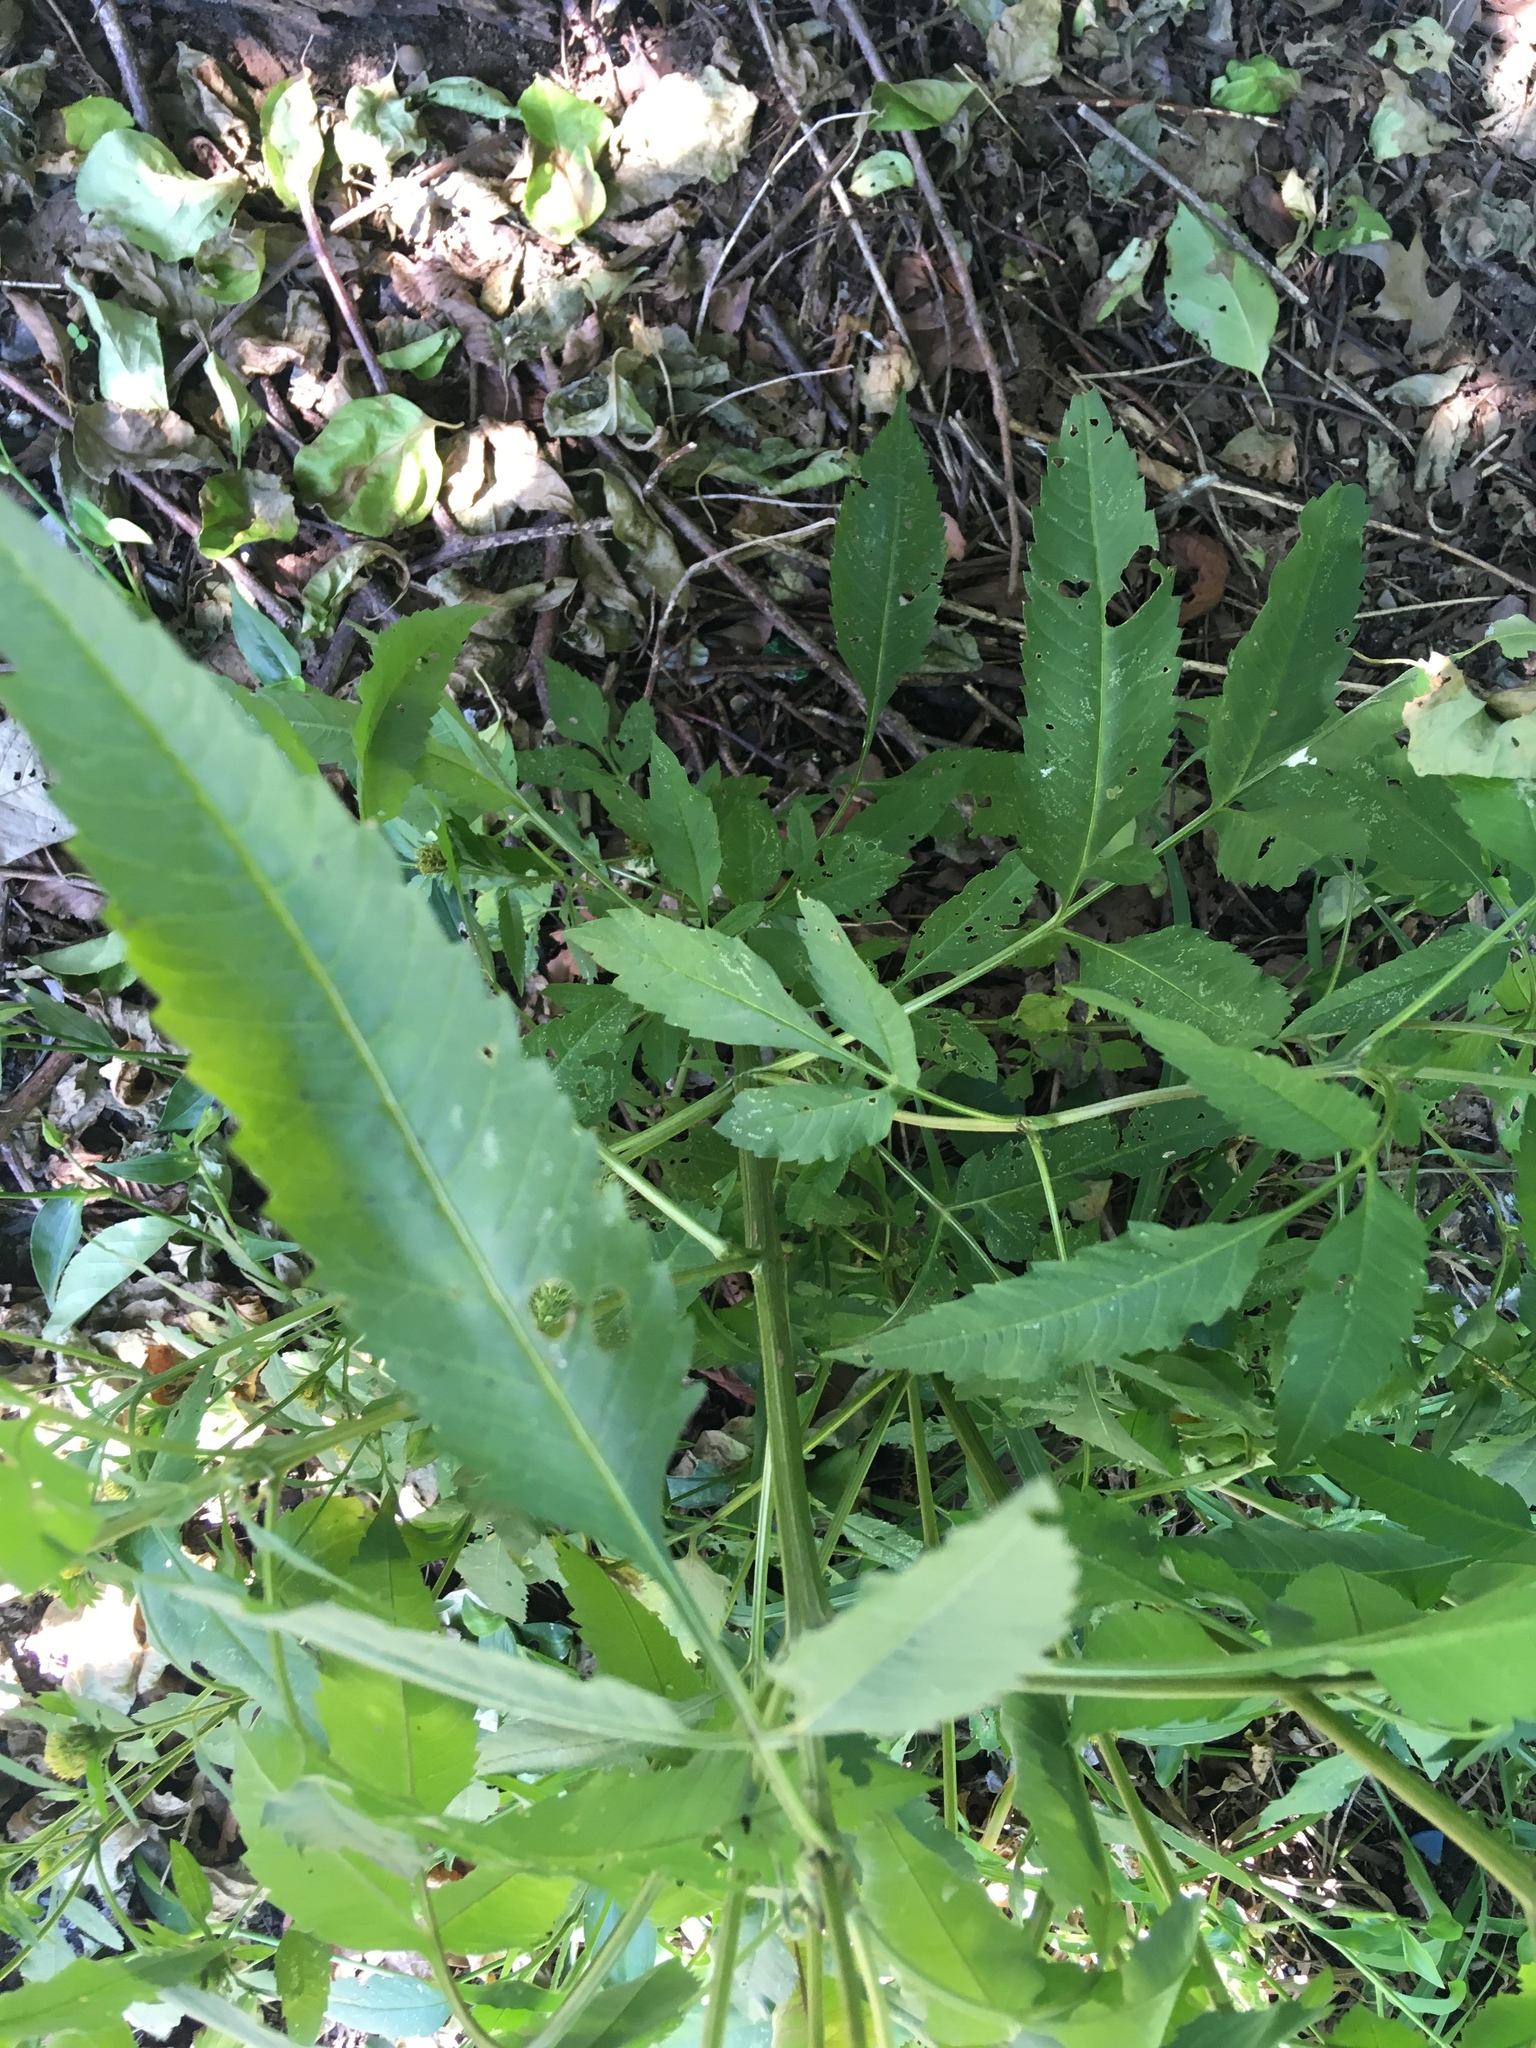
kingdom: Plantae
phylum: Tracheophyta
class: Magnoliopsida
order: Asterales
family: Asteraceae
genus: Bidens
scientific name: Bidens vulgata
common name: Tall beggarticks
